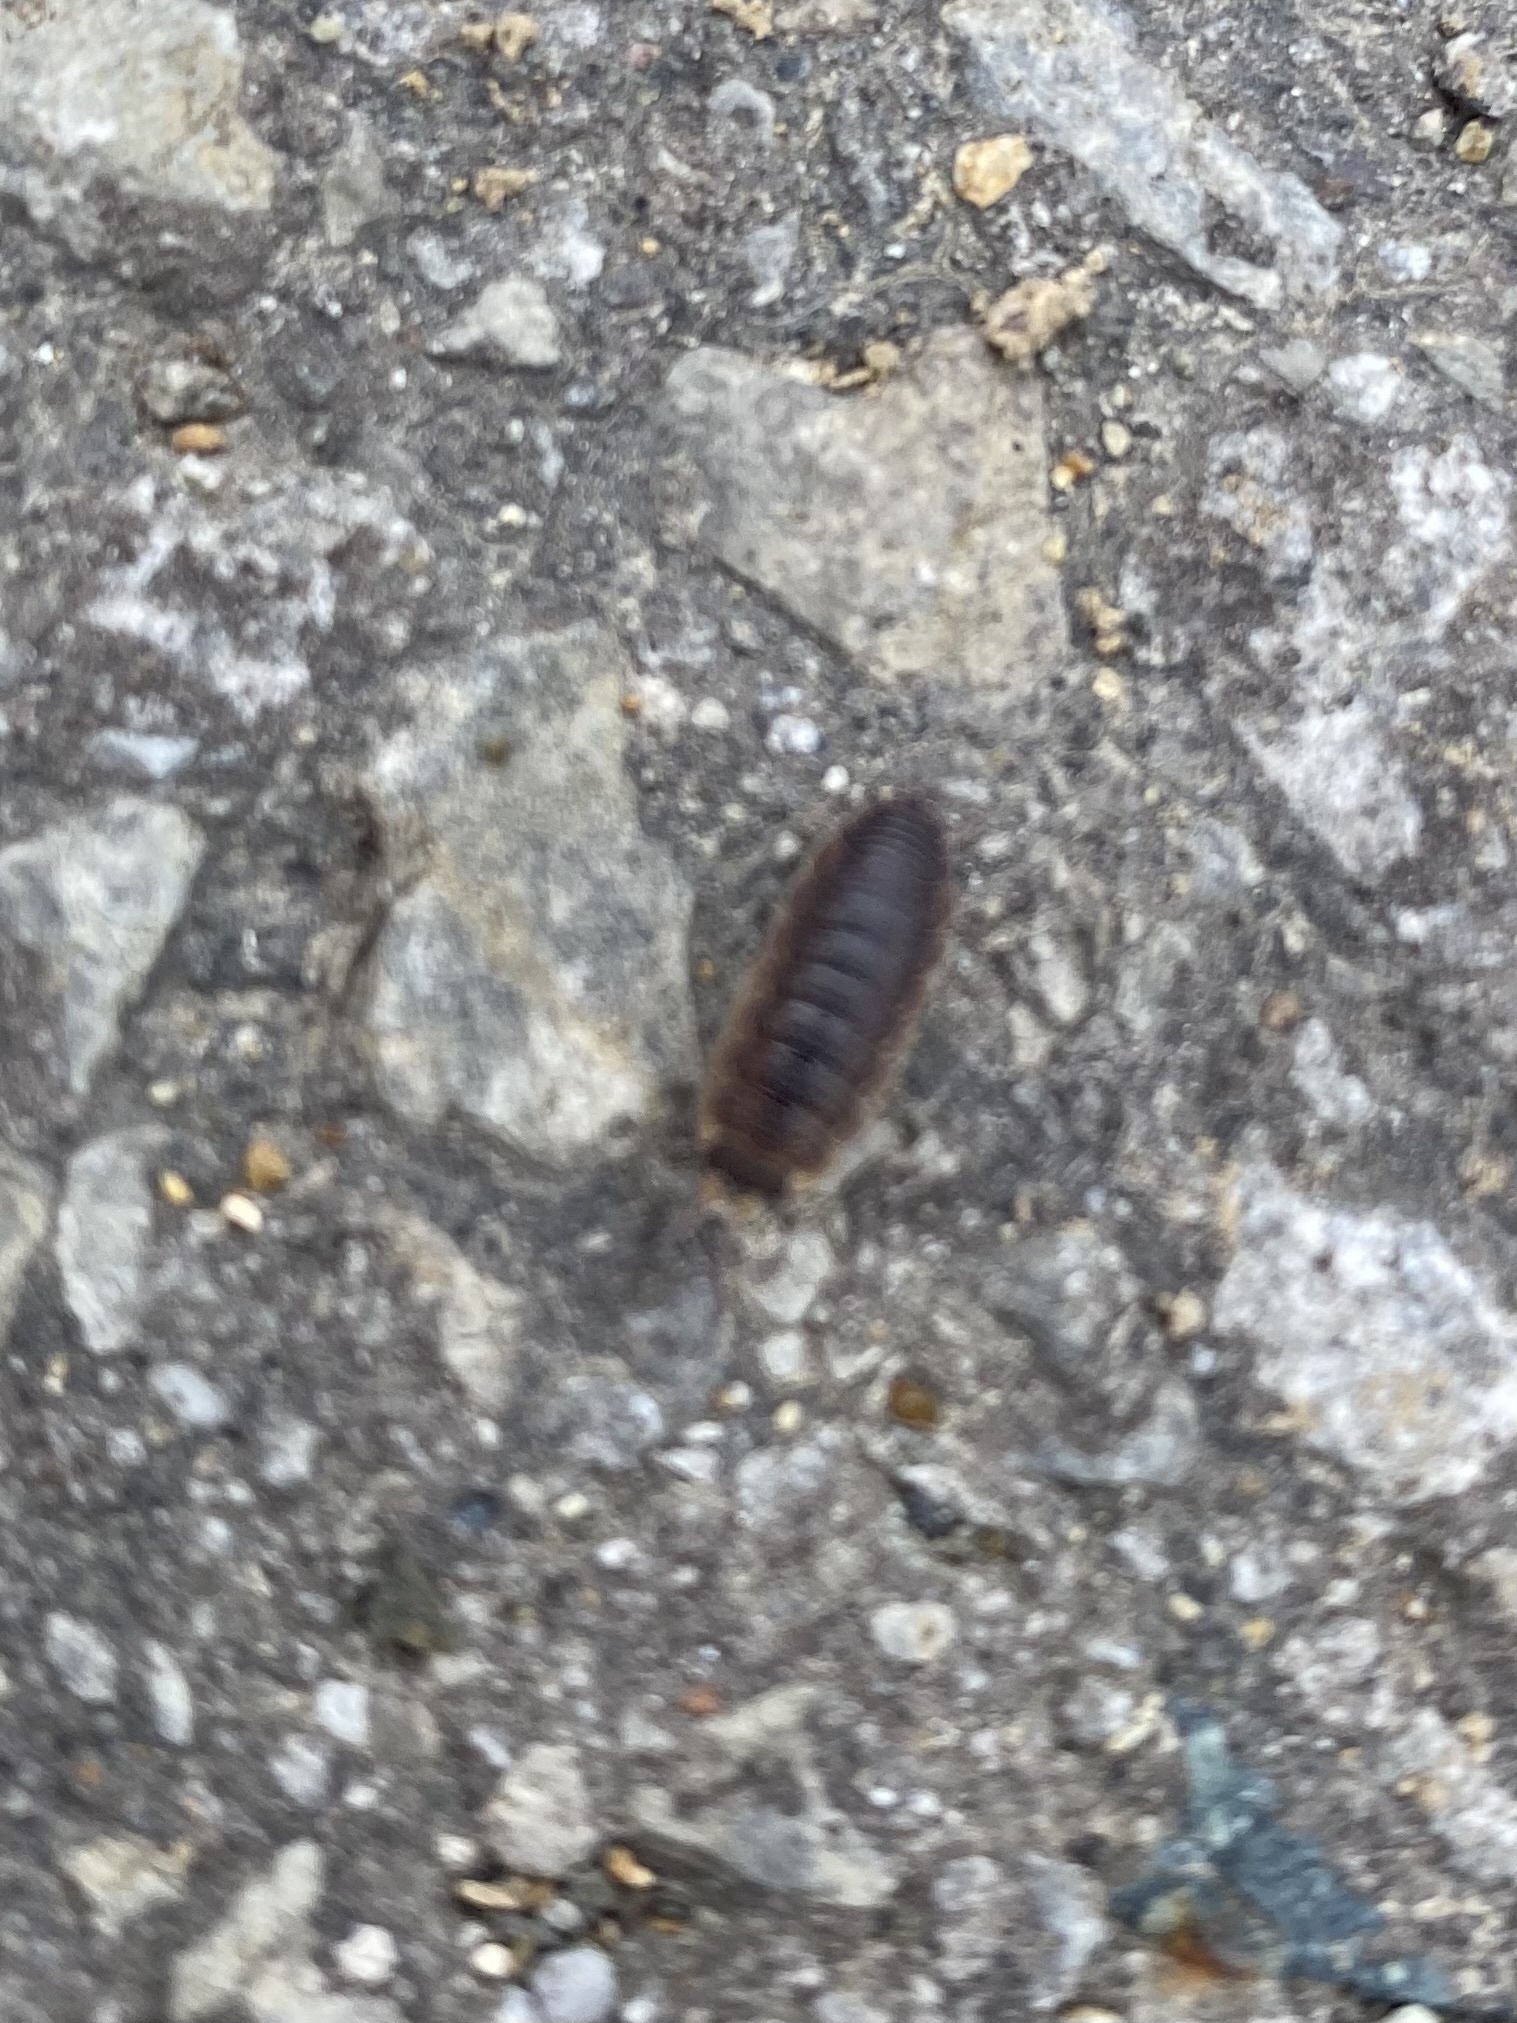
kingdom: Animalia
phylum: Arthropoda
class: Malacostraca
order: Isopoda
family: Porcellionidae
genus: Porcellio
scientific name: Porcellio scaber
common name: Common rough woodlouse
